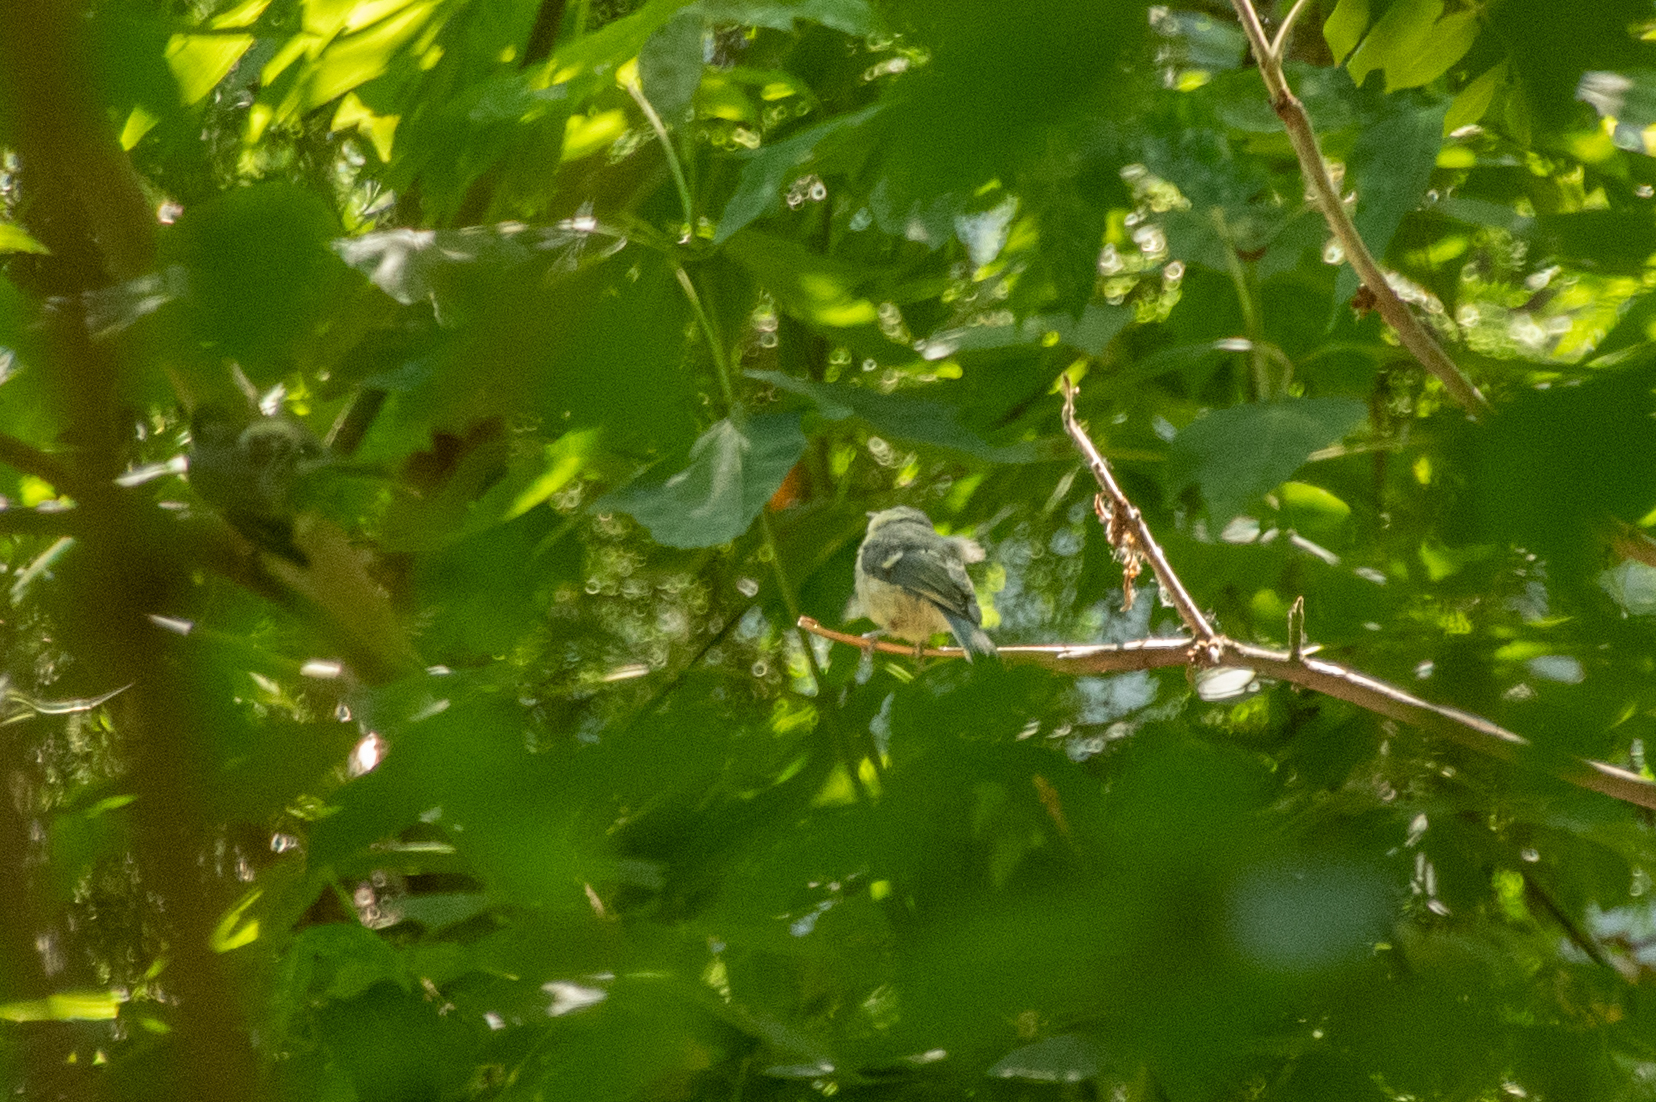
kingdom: Animalia
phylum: Chordata
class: Aves
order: Passeriformes
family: Paridae
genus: Cyanistes
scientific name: Cyanistes caeruleus
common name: Eurasian blue tit
